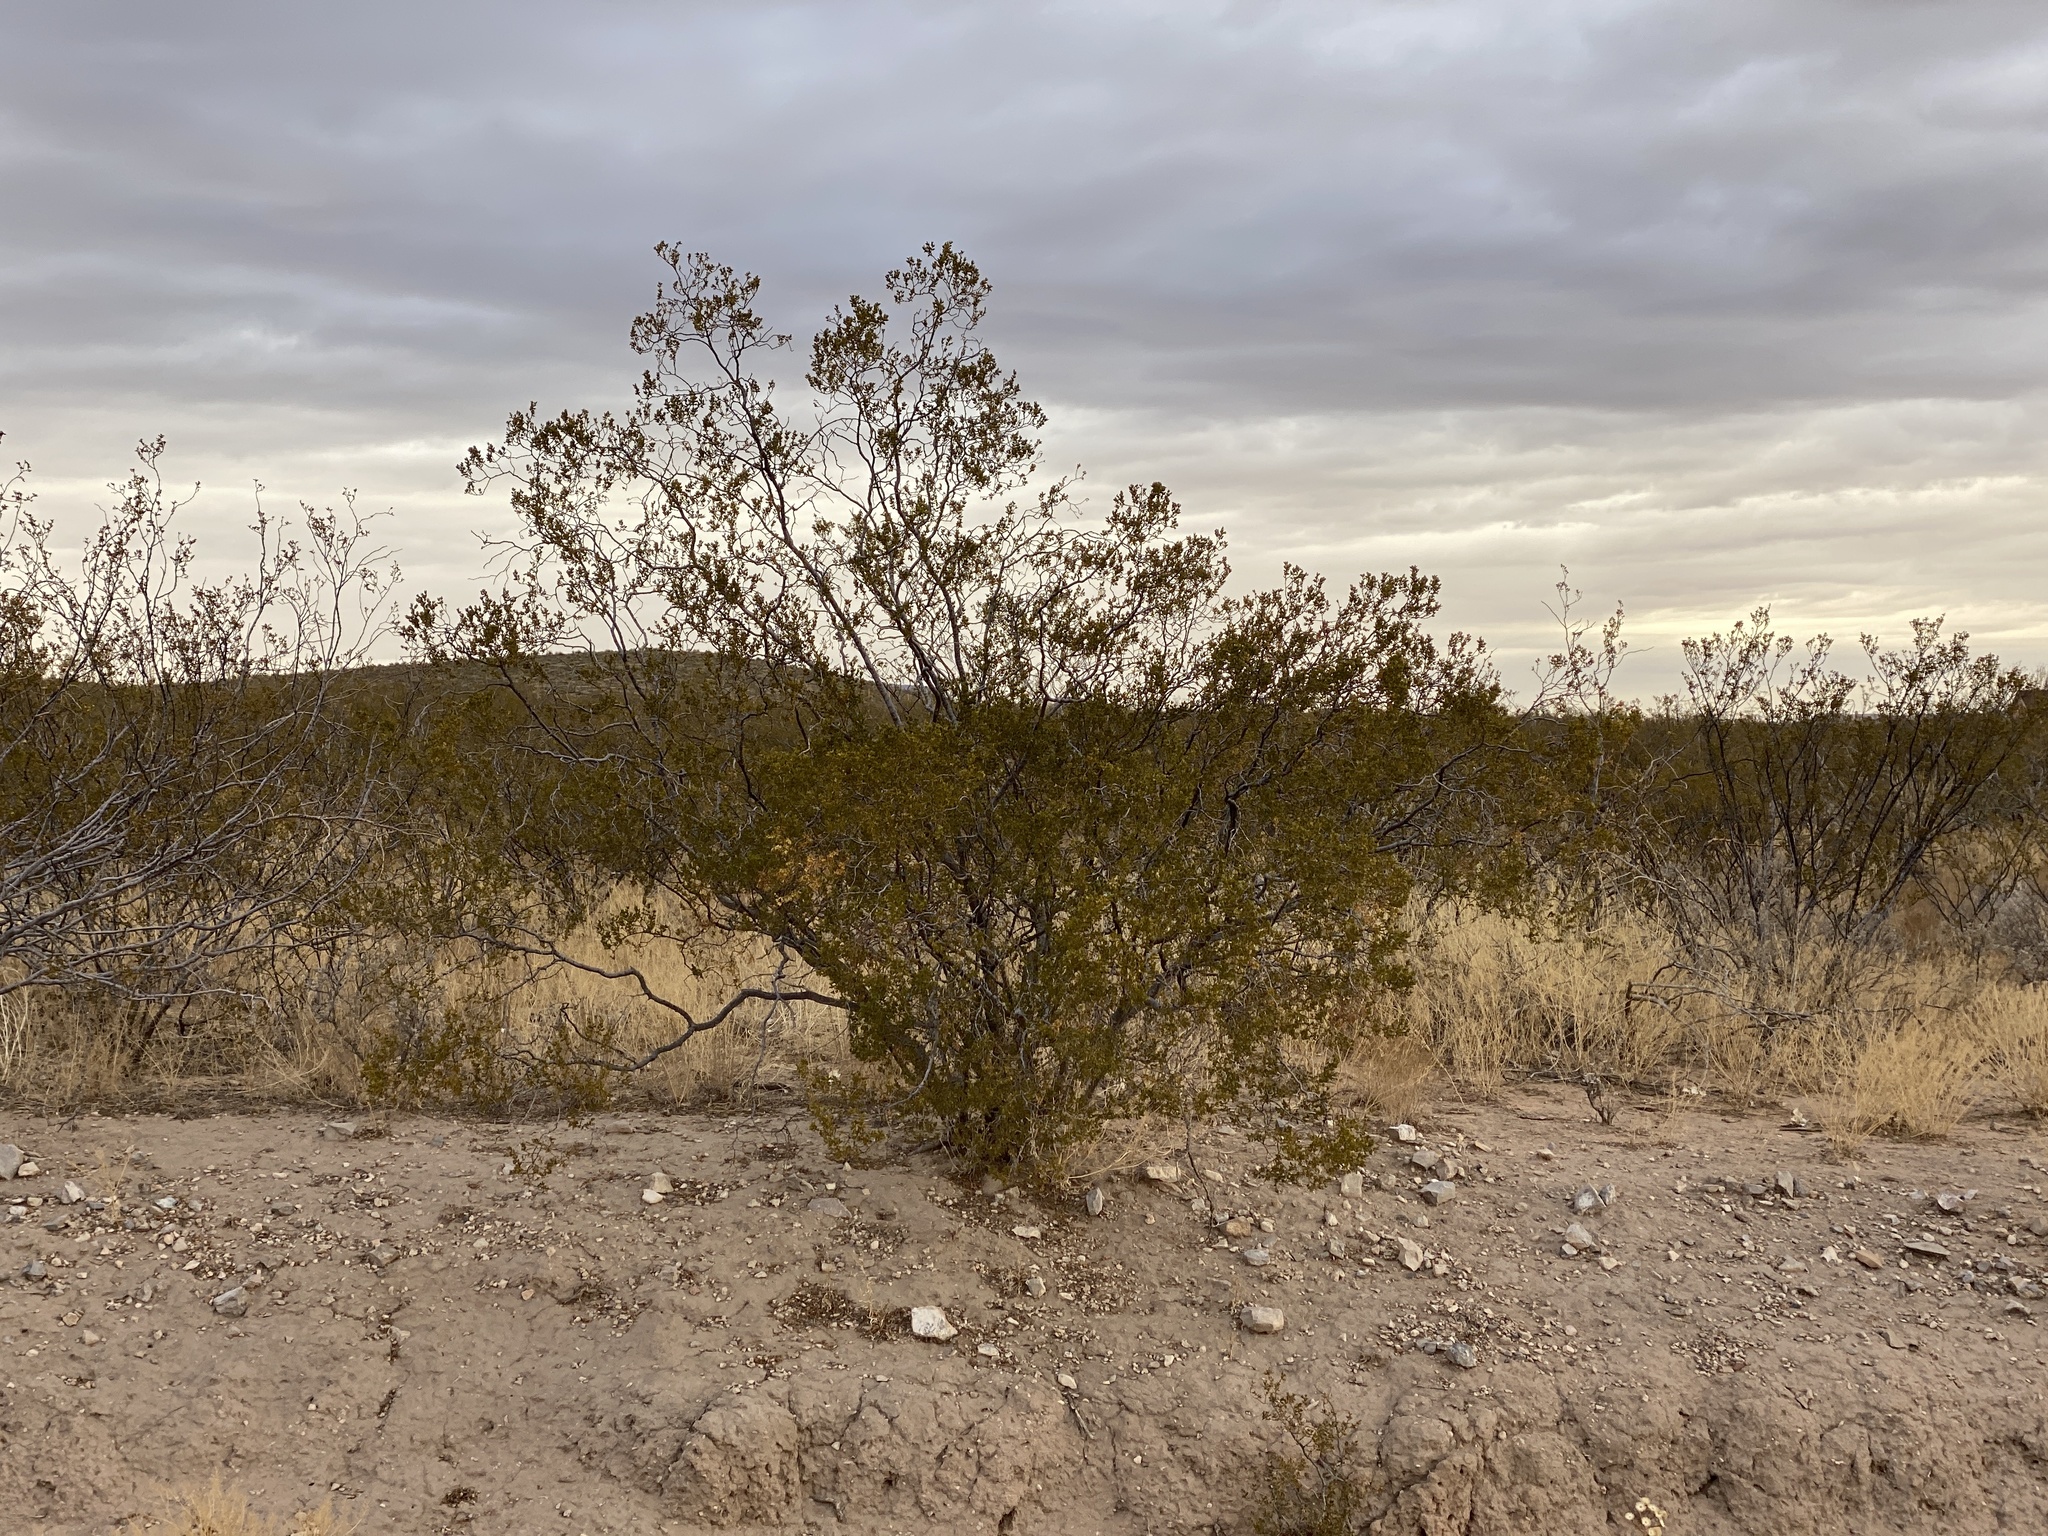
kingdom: Plantae
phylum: Tracheophyta
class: Magnoliopsida
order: Zygophyllales
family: Zygophyllaceae
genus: Larrea
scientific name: Larrea tridentata
